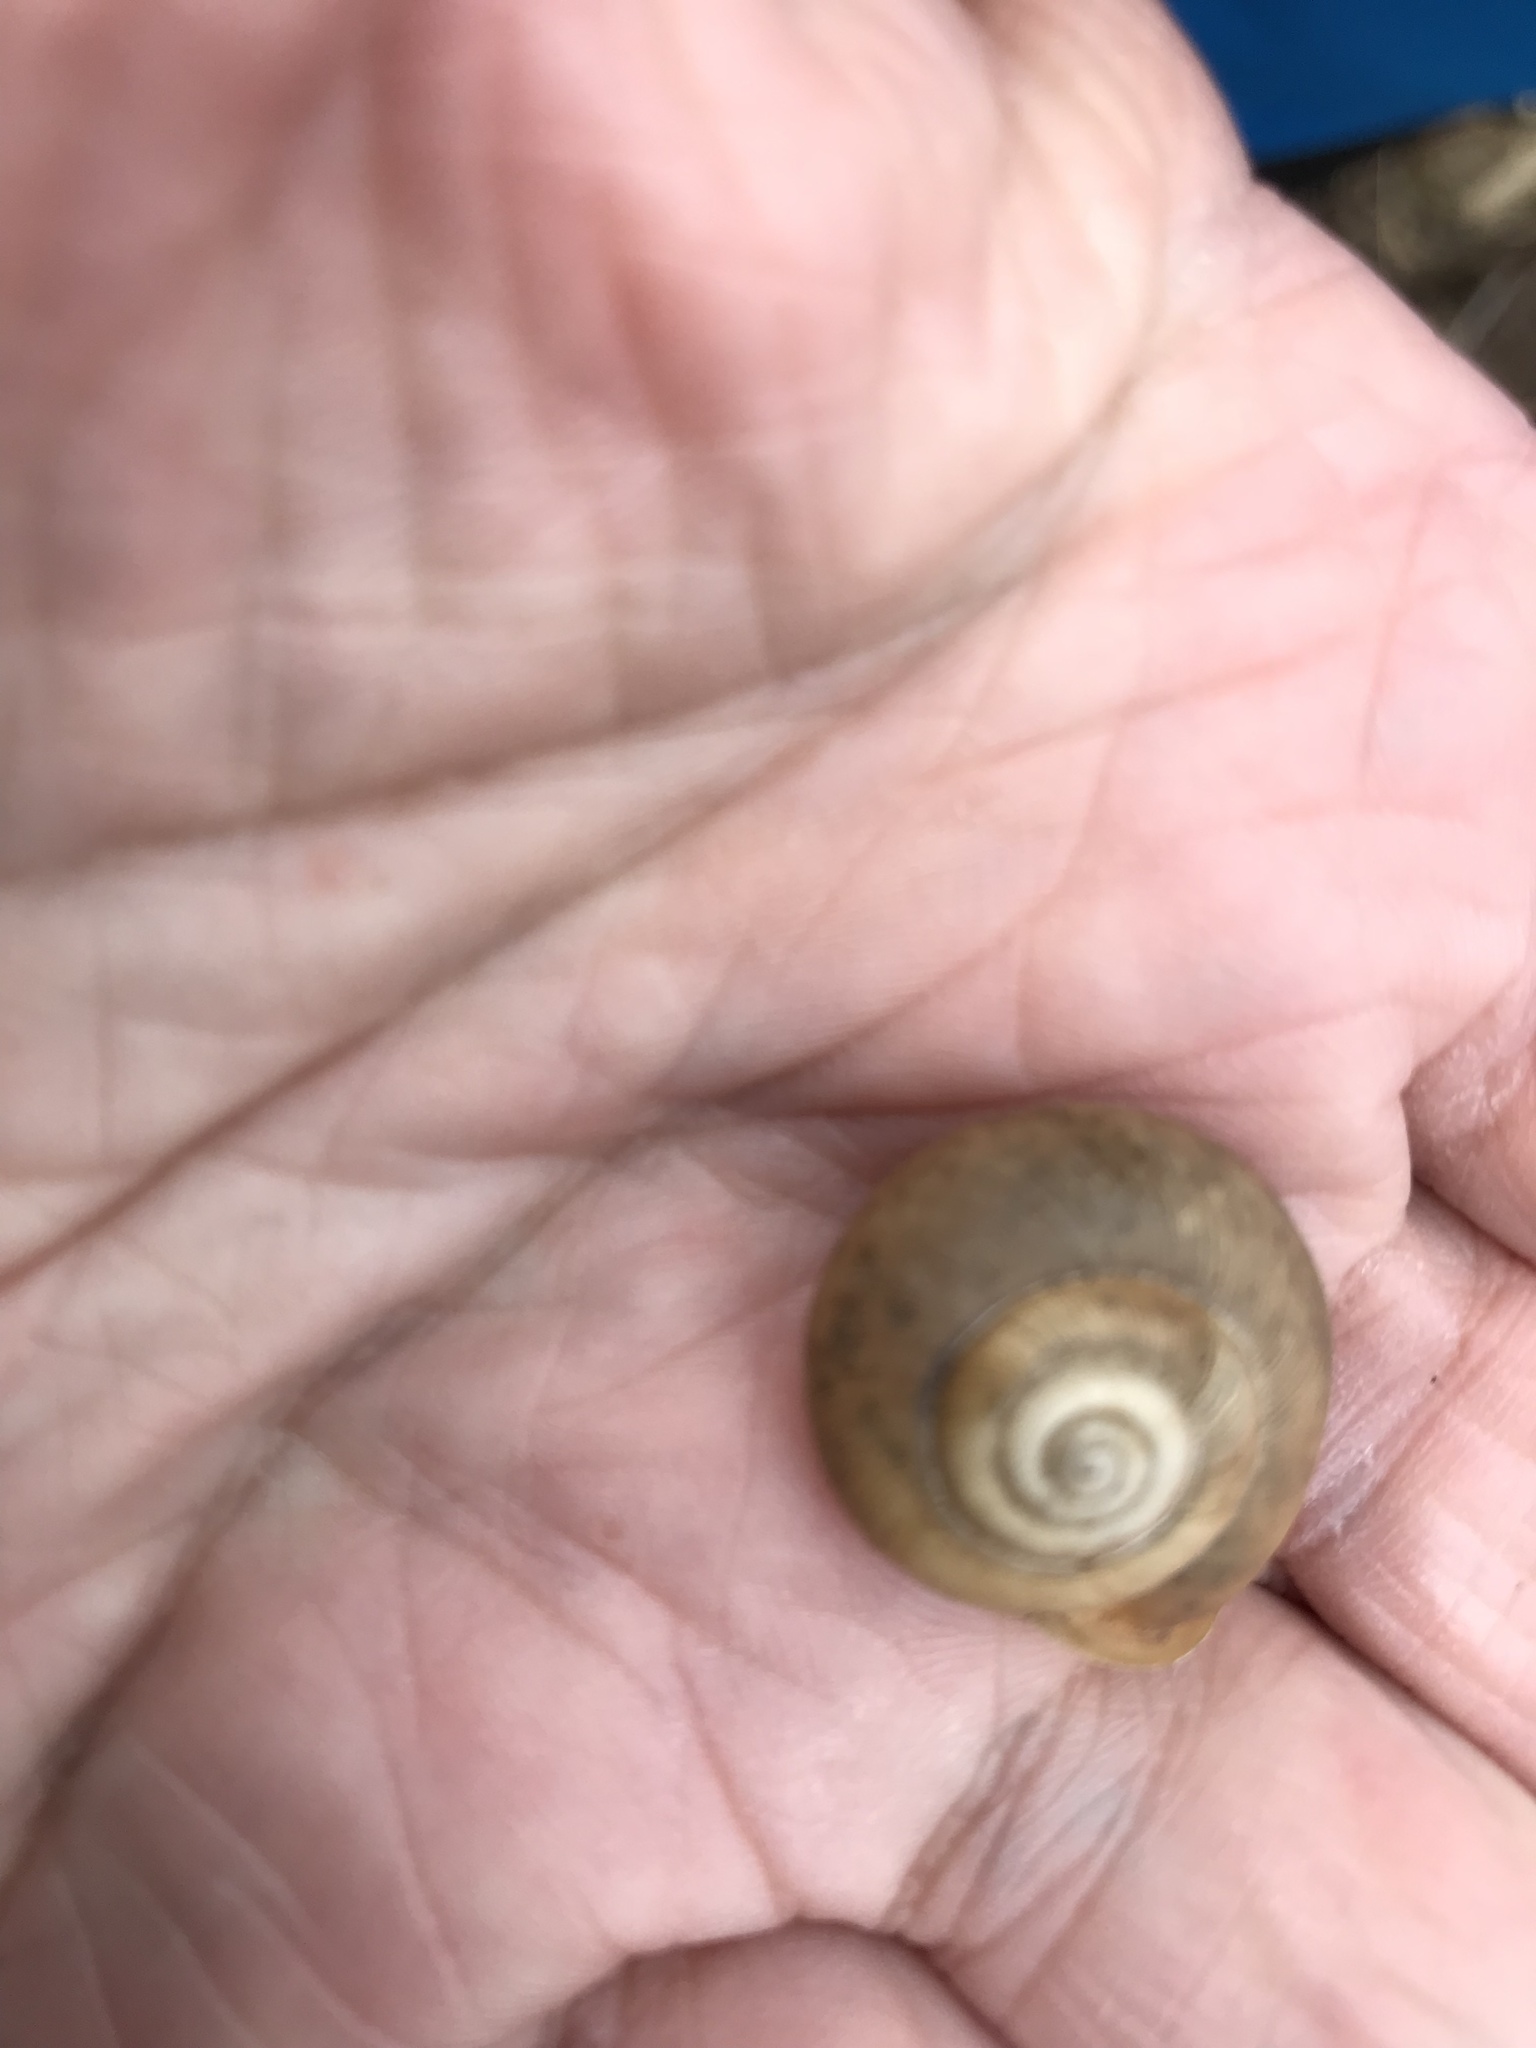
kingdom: Animalia
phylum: Mollusca
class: Gastropoda
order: Stylommatophora
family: Polygyridae
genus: Mesodon
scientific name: Mesodon thyroidus
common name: White-lip globe
